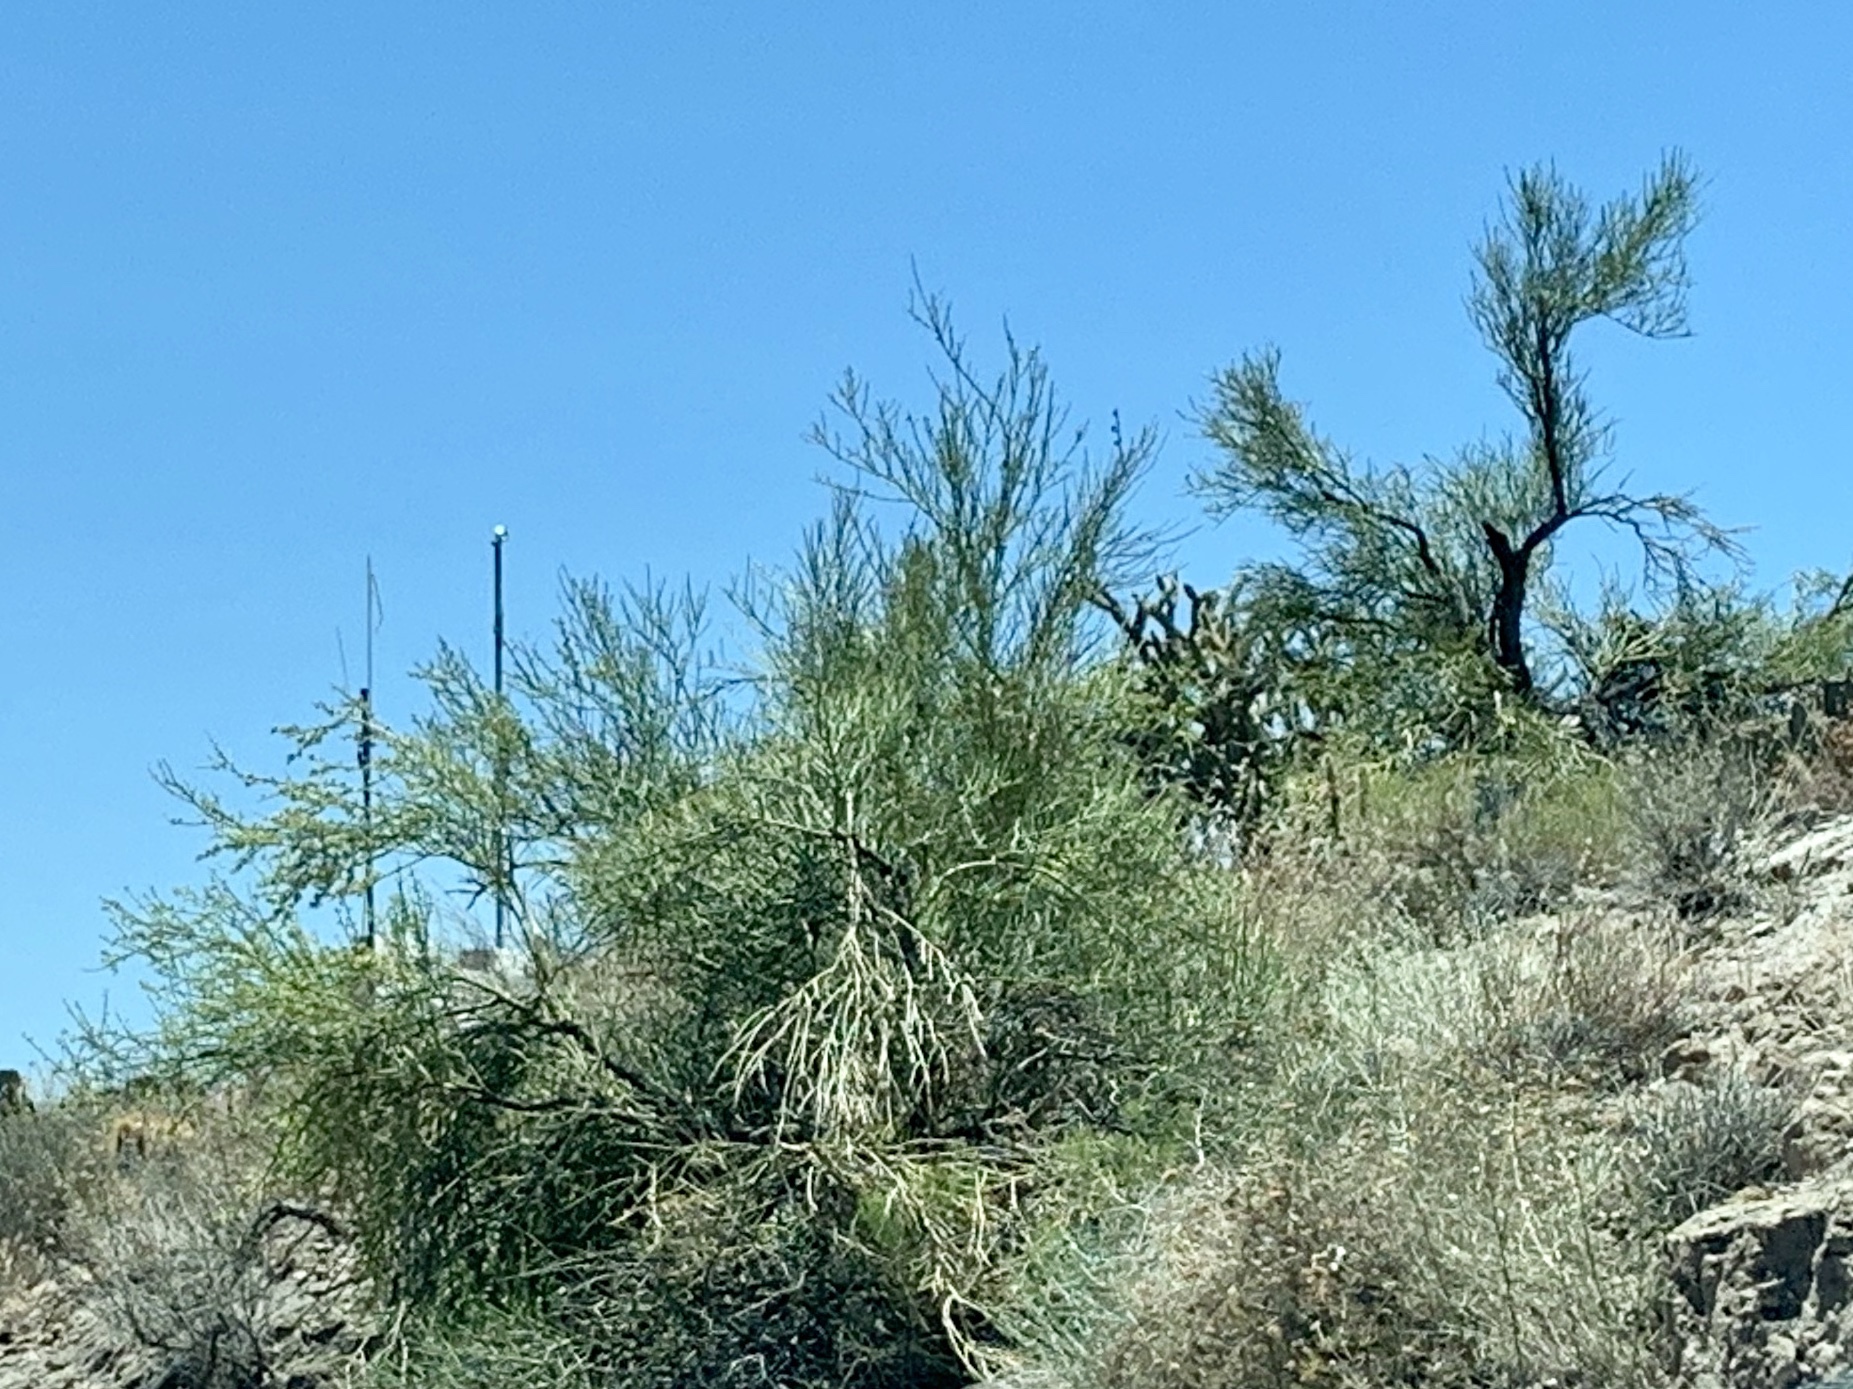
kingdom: Plantae
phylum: Tracheophyta
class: Magnoliopsida
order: Celastrales
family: Celastraceae
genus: Canotia
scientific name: Canotia holacantha
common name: Crucifixion thorns
